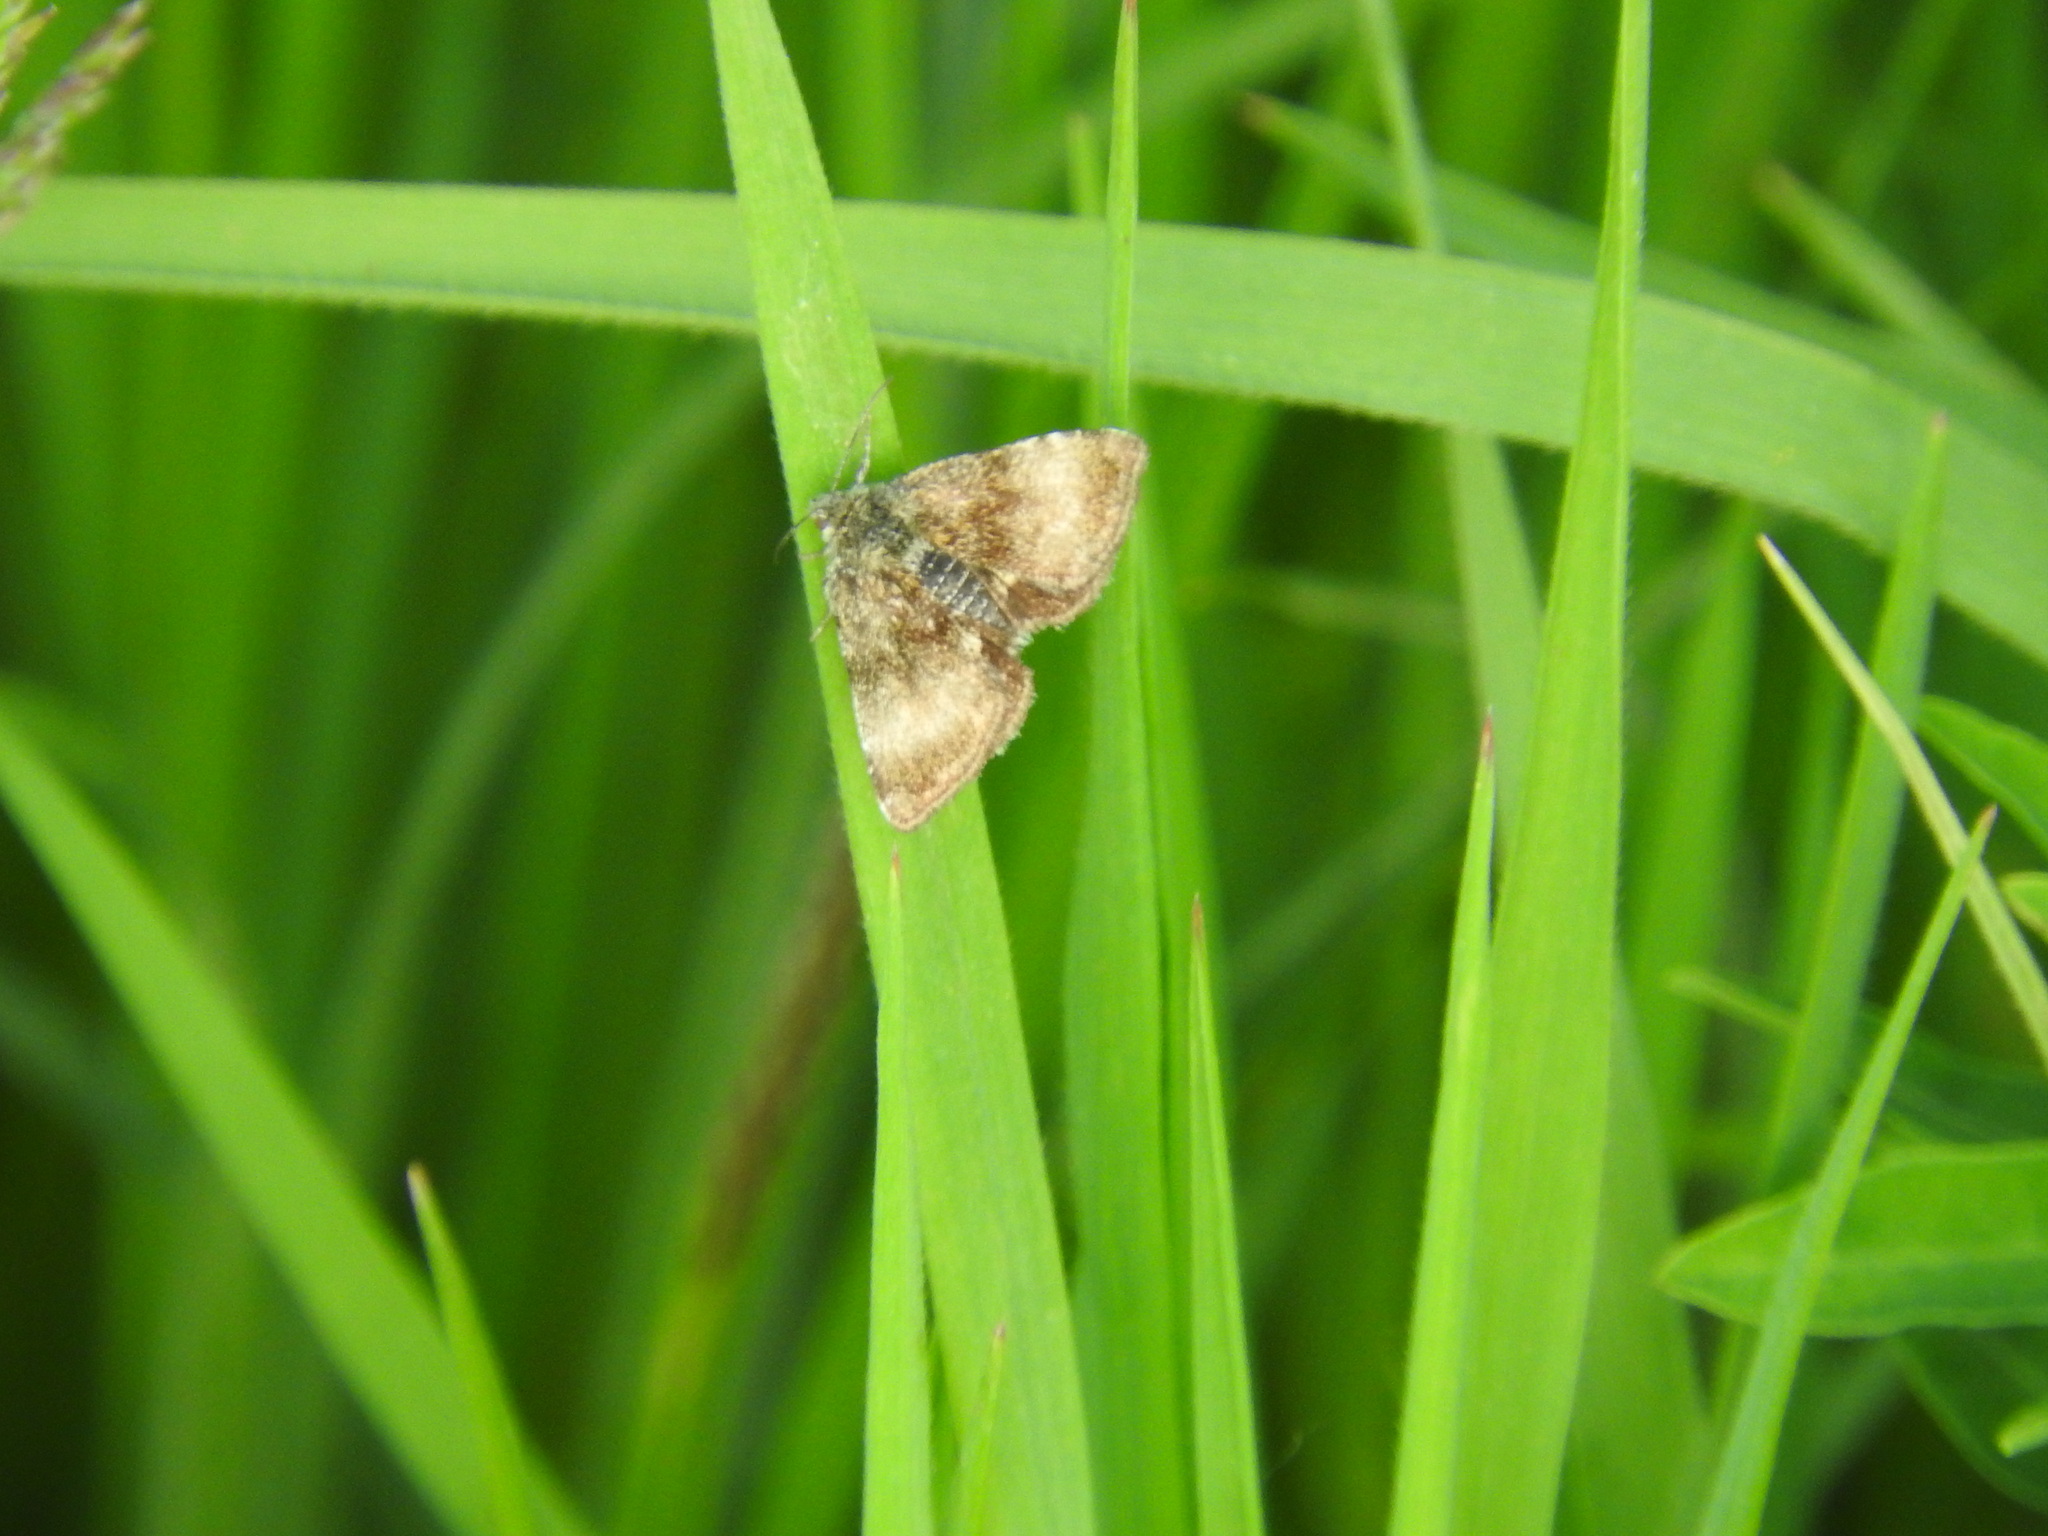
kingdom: Animalia
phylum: Arthropoda
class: Insecta
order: Lepidoptera
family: Noctuidae
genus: Panemeria
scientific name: Panemeria tenebrata
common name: Small yellow underwing
